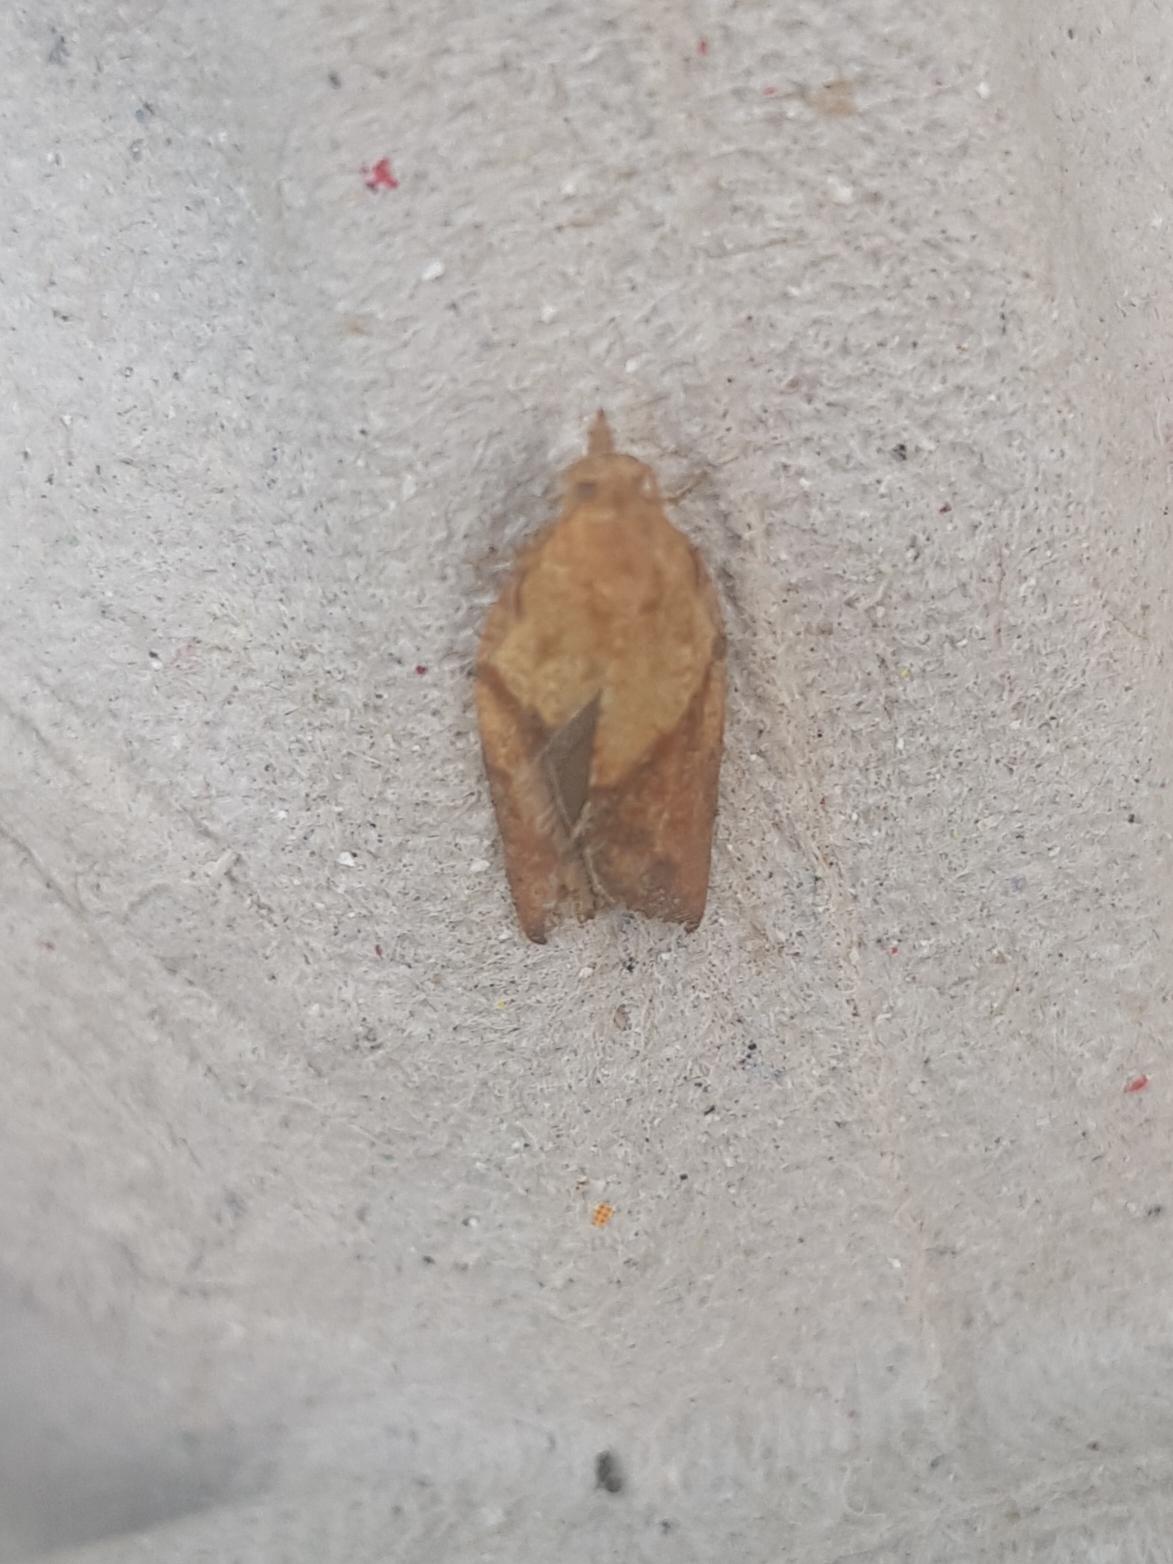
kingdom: Animalia
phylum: Arthropoda
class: Insecta
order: Lepidoptera
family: Tortricidae
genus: Epiphyas
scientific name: Epiphyas postvittana
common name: Light brown apple moth
